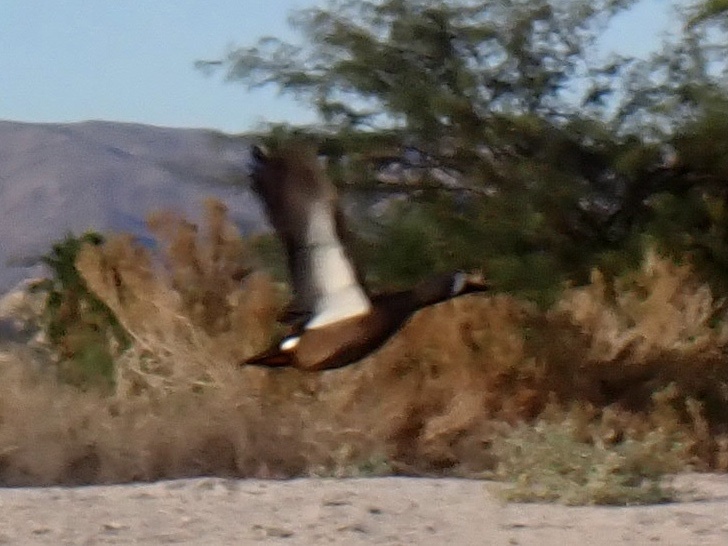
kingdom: Animalia
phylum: Chordata
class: Aves
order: Anseriformes
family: Anatidae
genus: Spatula
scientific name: Spatula discors
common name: Blue-winged teal
